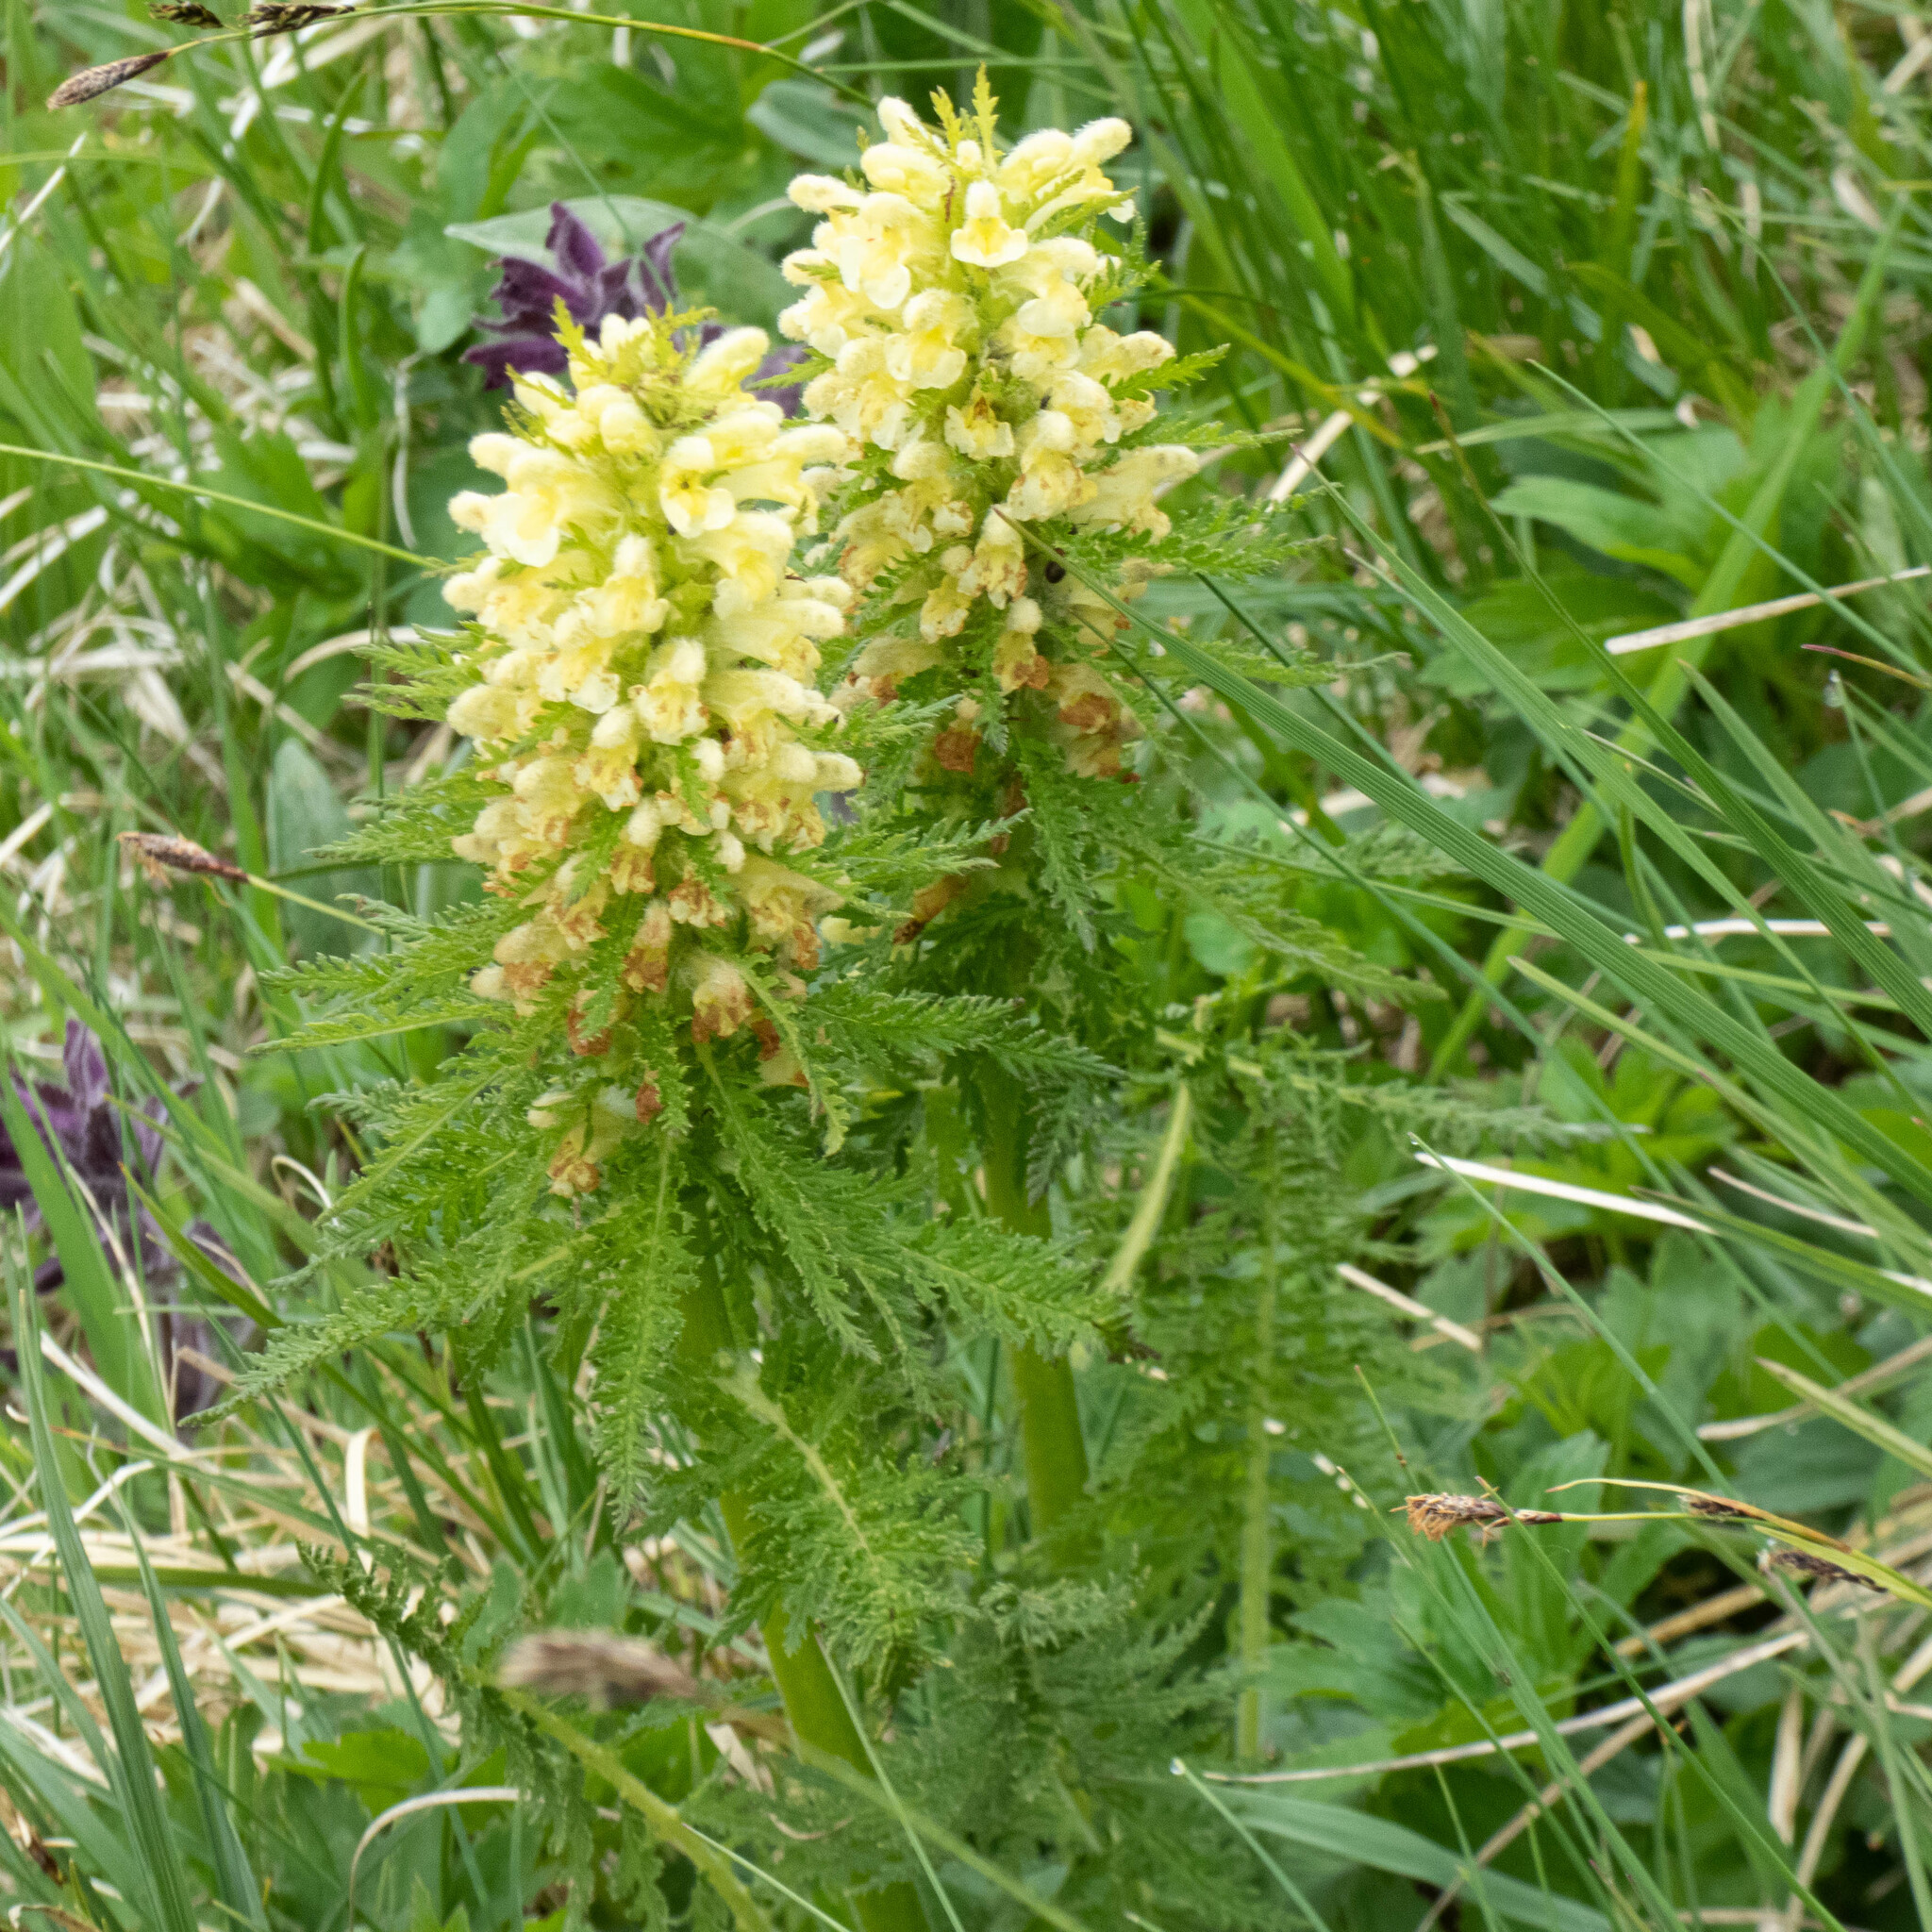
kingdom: Plantae
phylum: Tracheophyta
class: Magnoliopsida
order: Lamiales
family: Orobanchaceae
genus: Pedicularis
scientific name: Pedicularis foliosa
